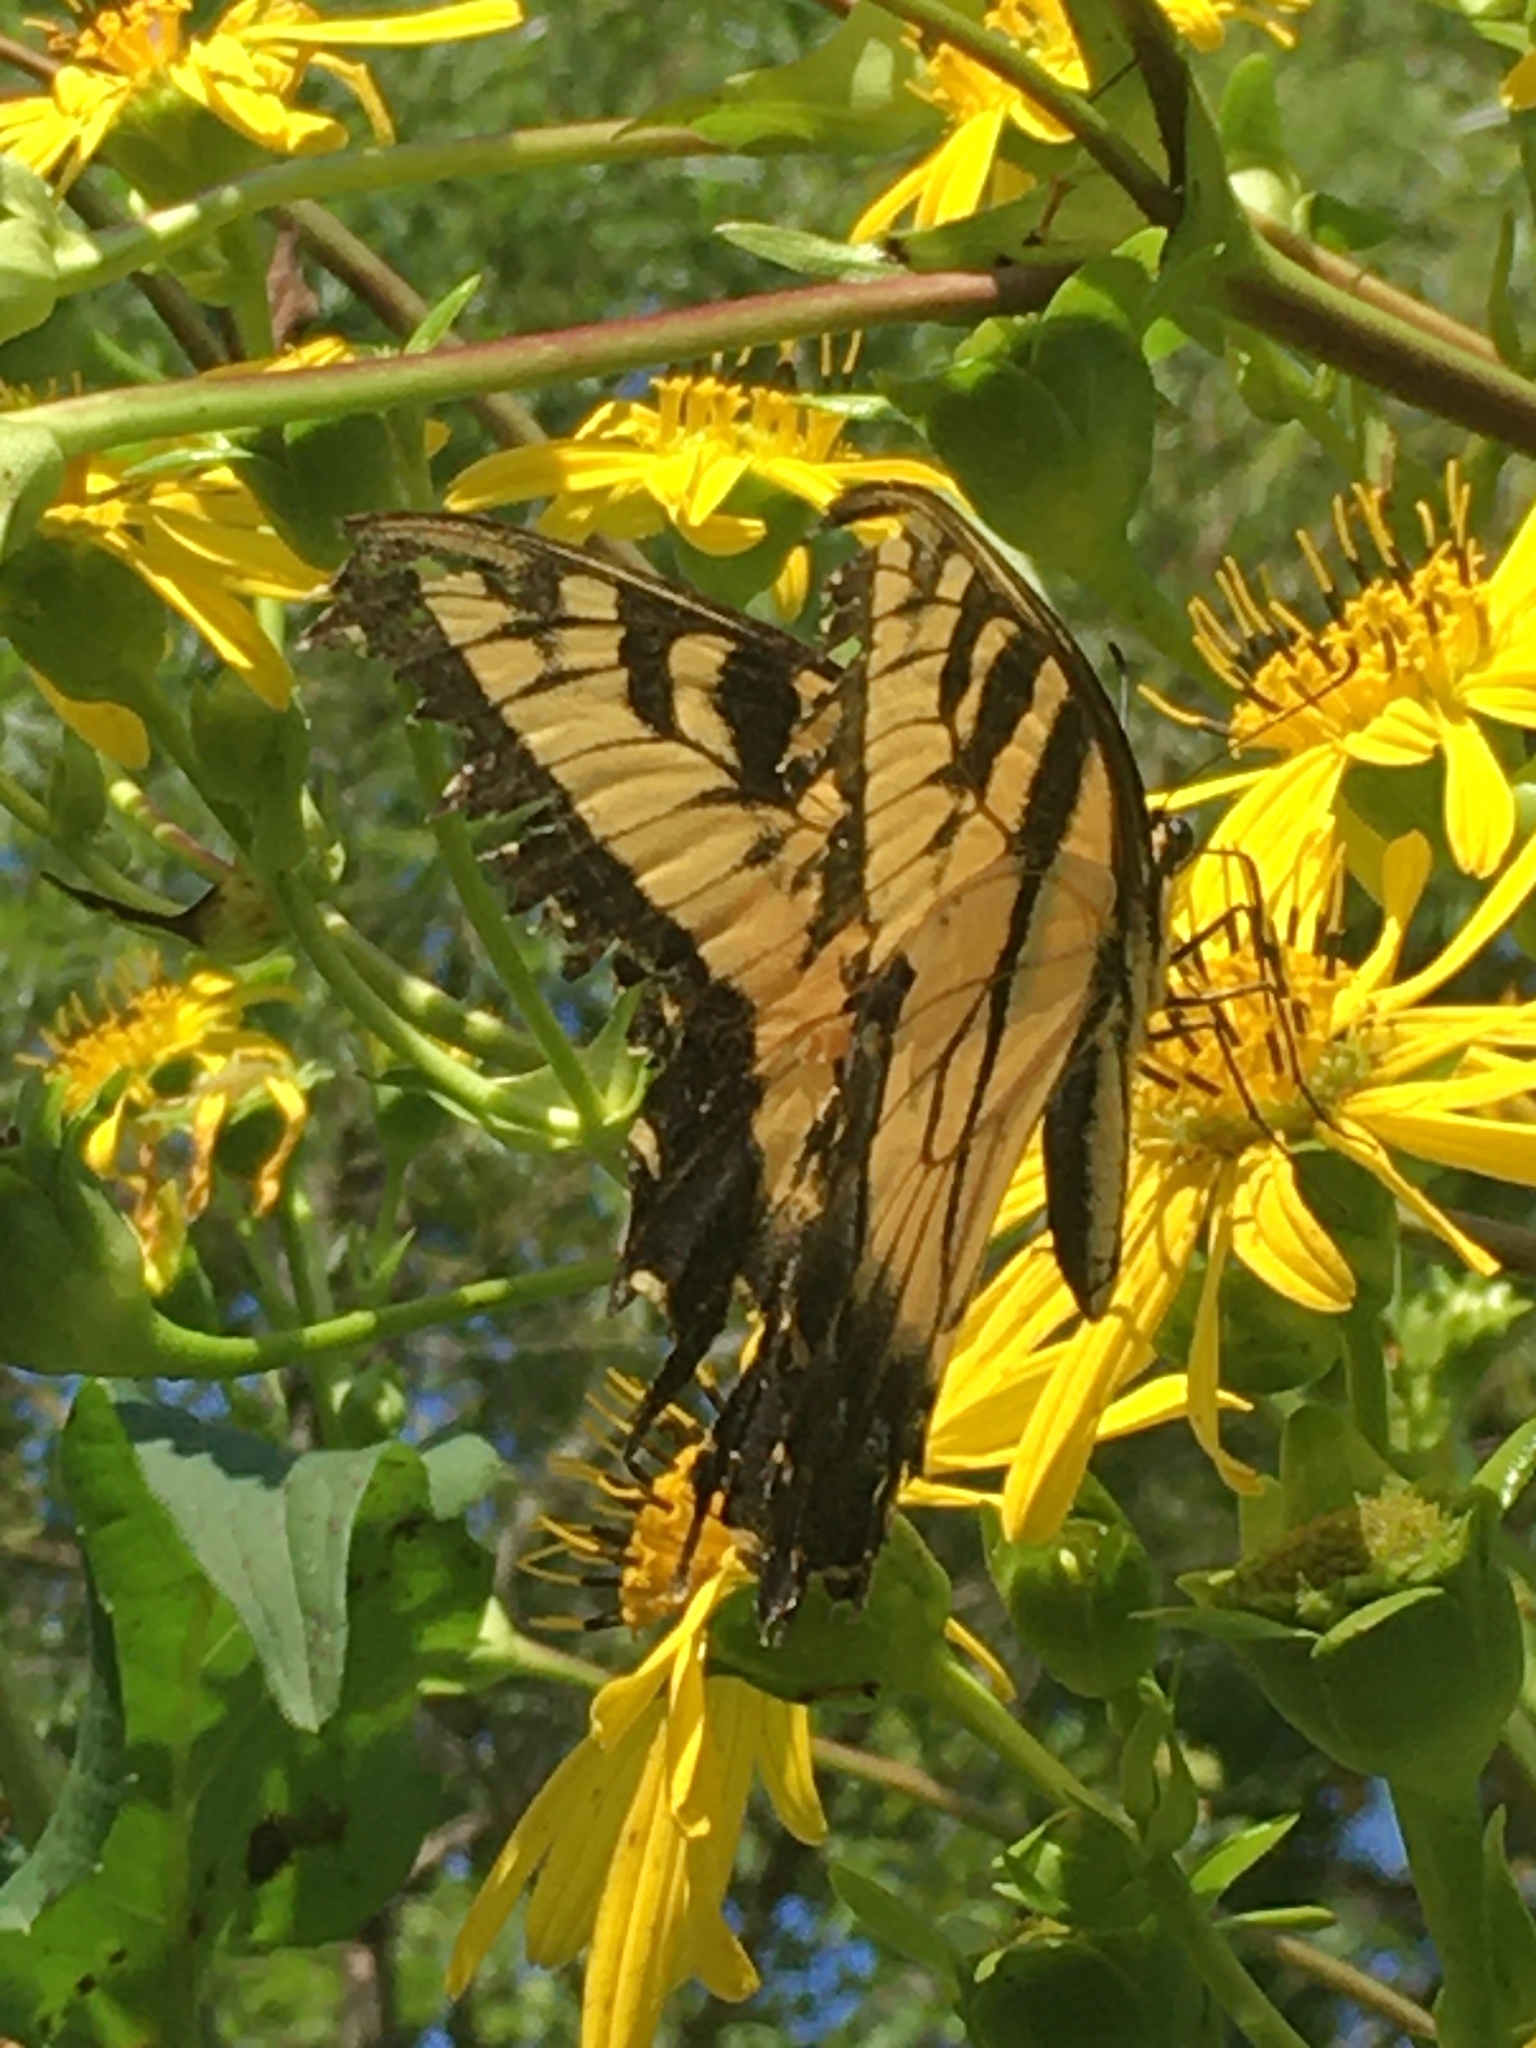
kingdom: Animalia
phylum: Arthropoda
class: Insecta
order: Lepidoptera
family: Papilionidae
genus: Papilio
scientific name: Papilio glaucus
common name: Tiger swallowtail
